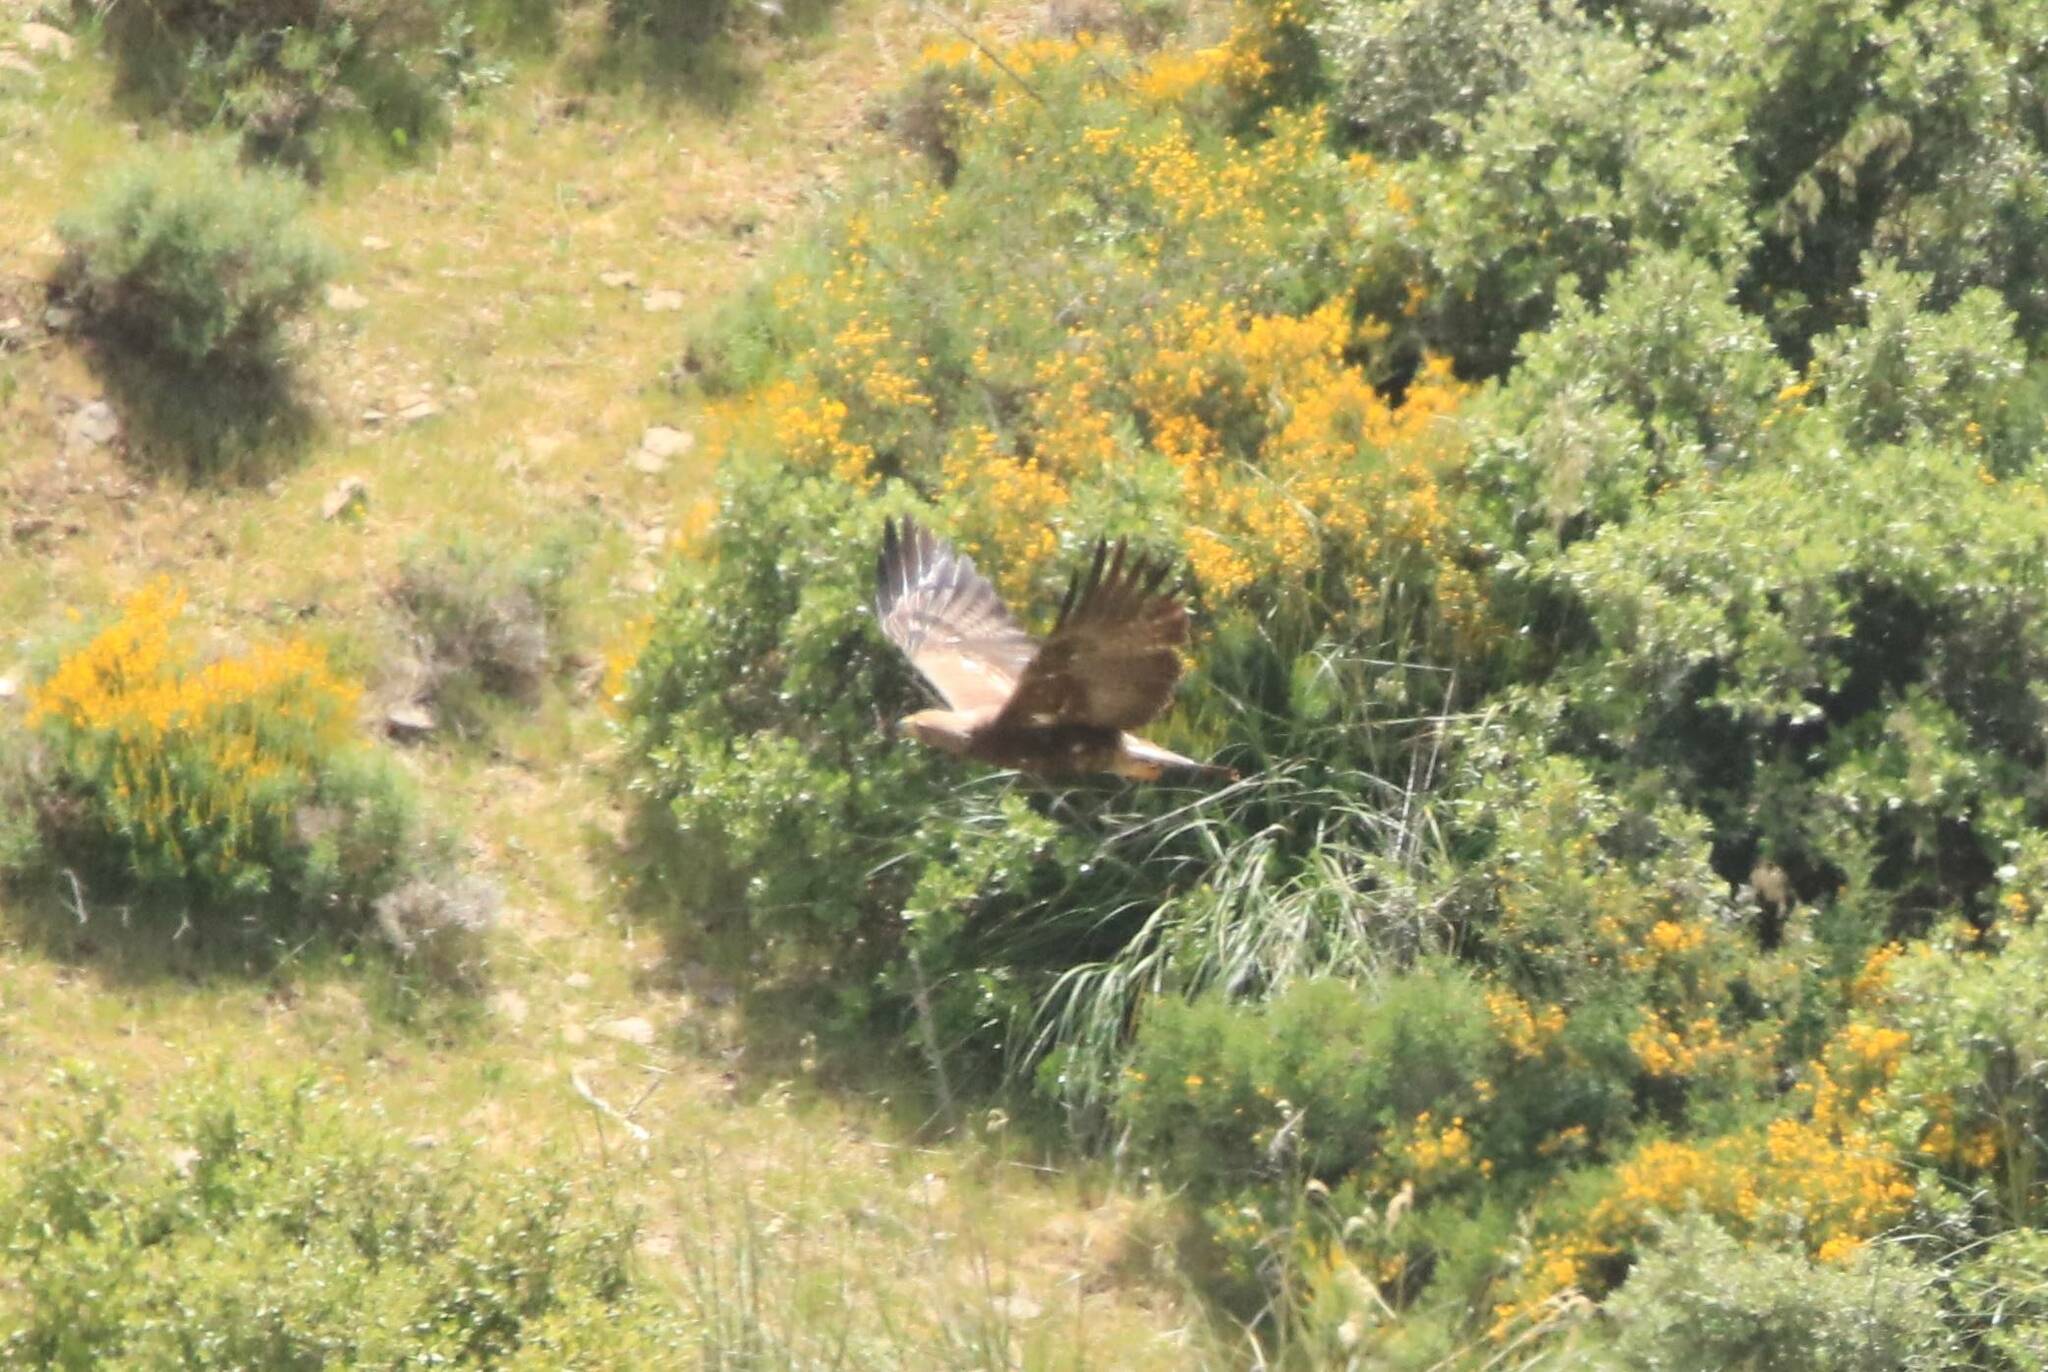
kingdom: Animalia
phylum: Chordata
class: Aves
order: Accipitriformes
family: Accipitridae
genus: Aquila
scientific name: Aquila chrysaetos
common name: Golden eagle
